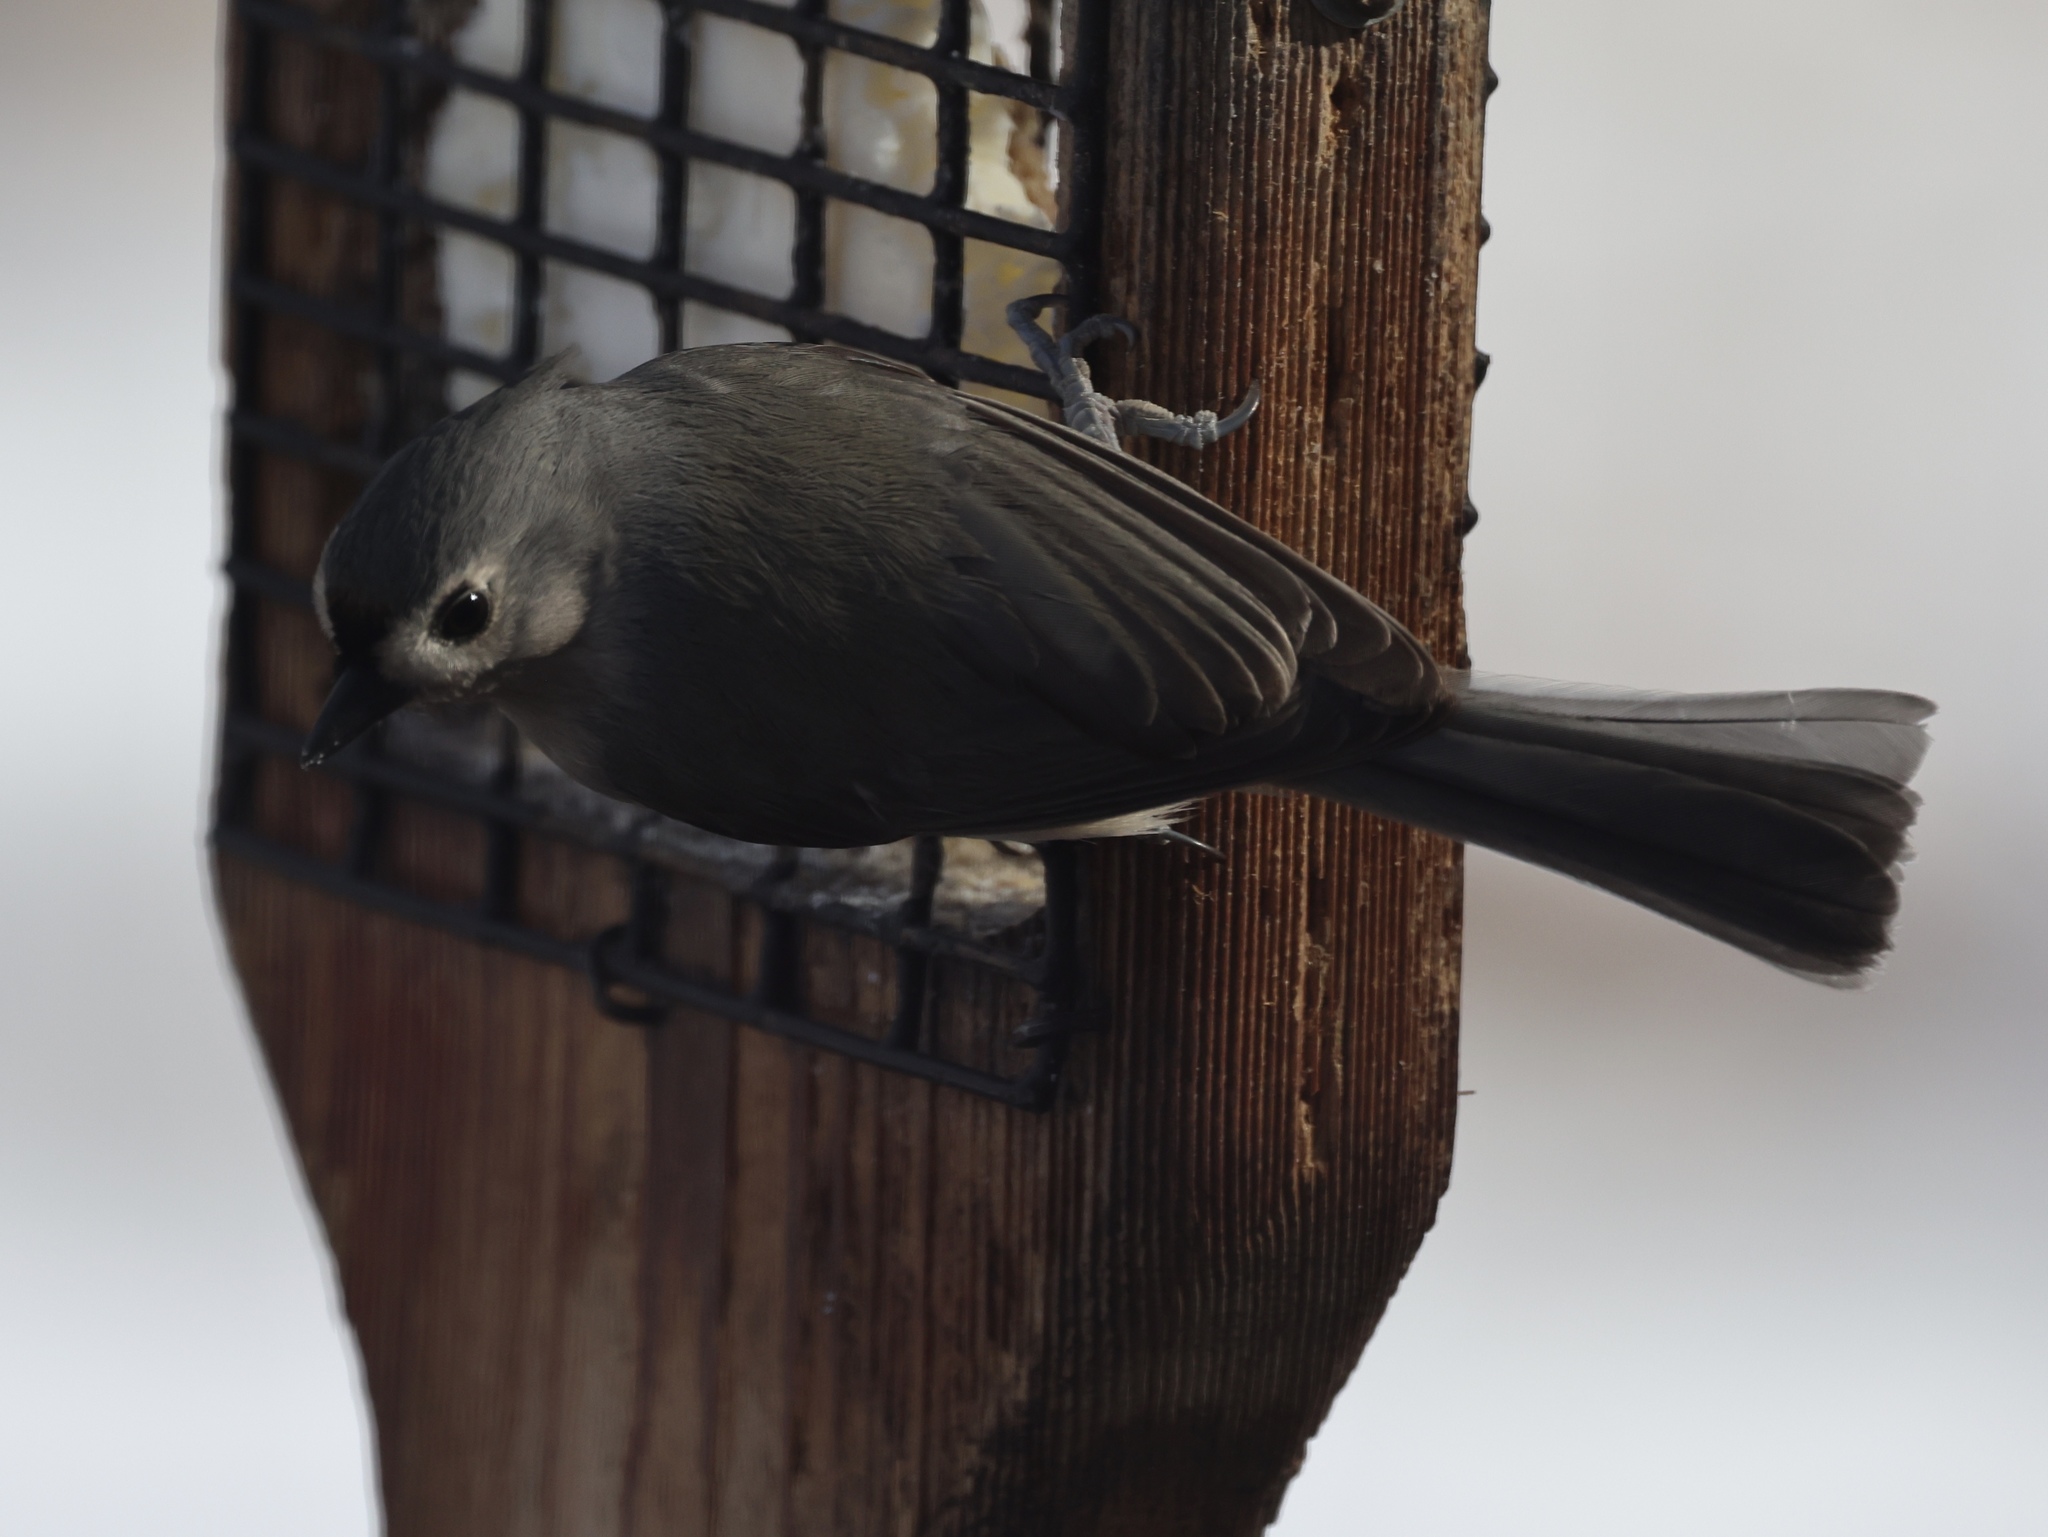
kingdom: Animalia
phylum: Chordata
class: Aves
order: Passeriformes
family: Paridae
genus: Baeolophus
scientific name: Baeolophus bicolor
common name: Tufted titmouse
